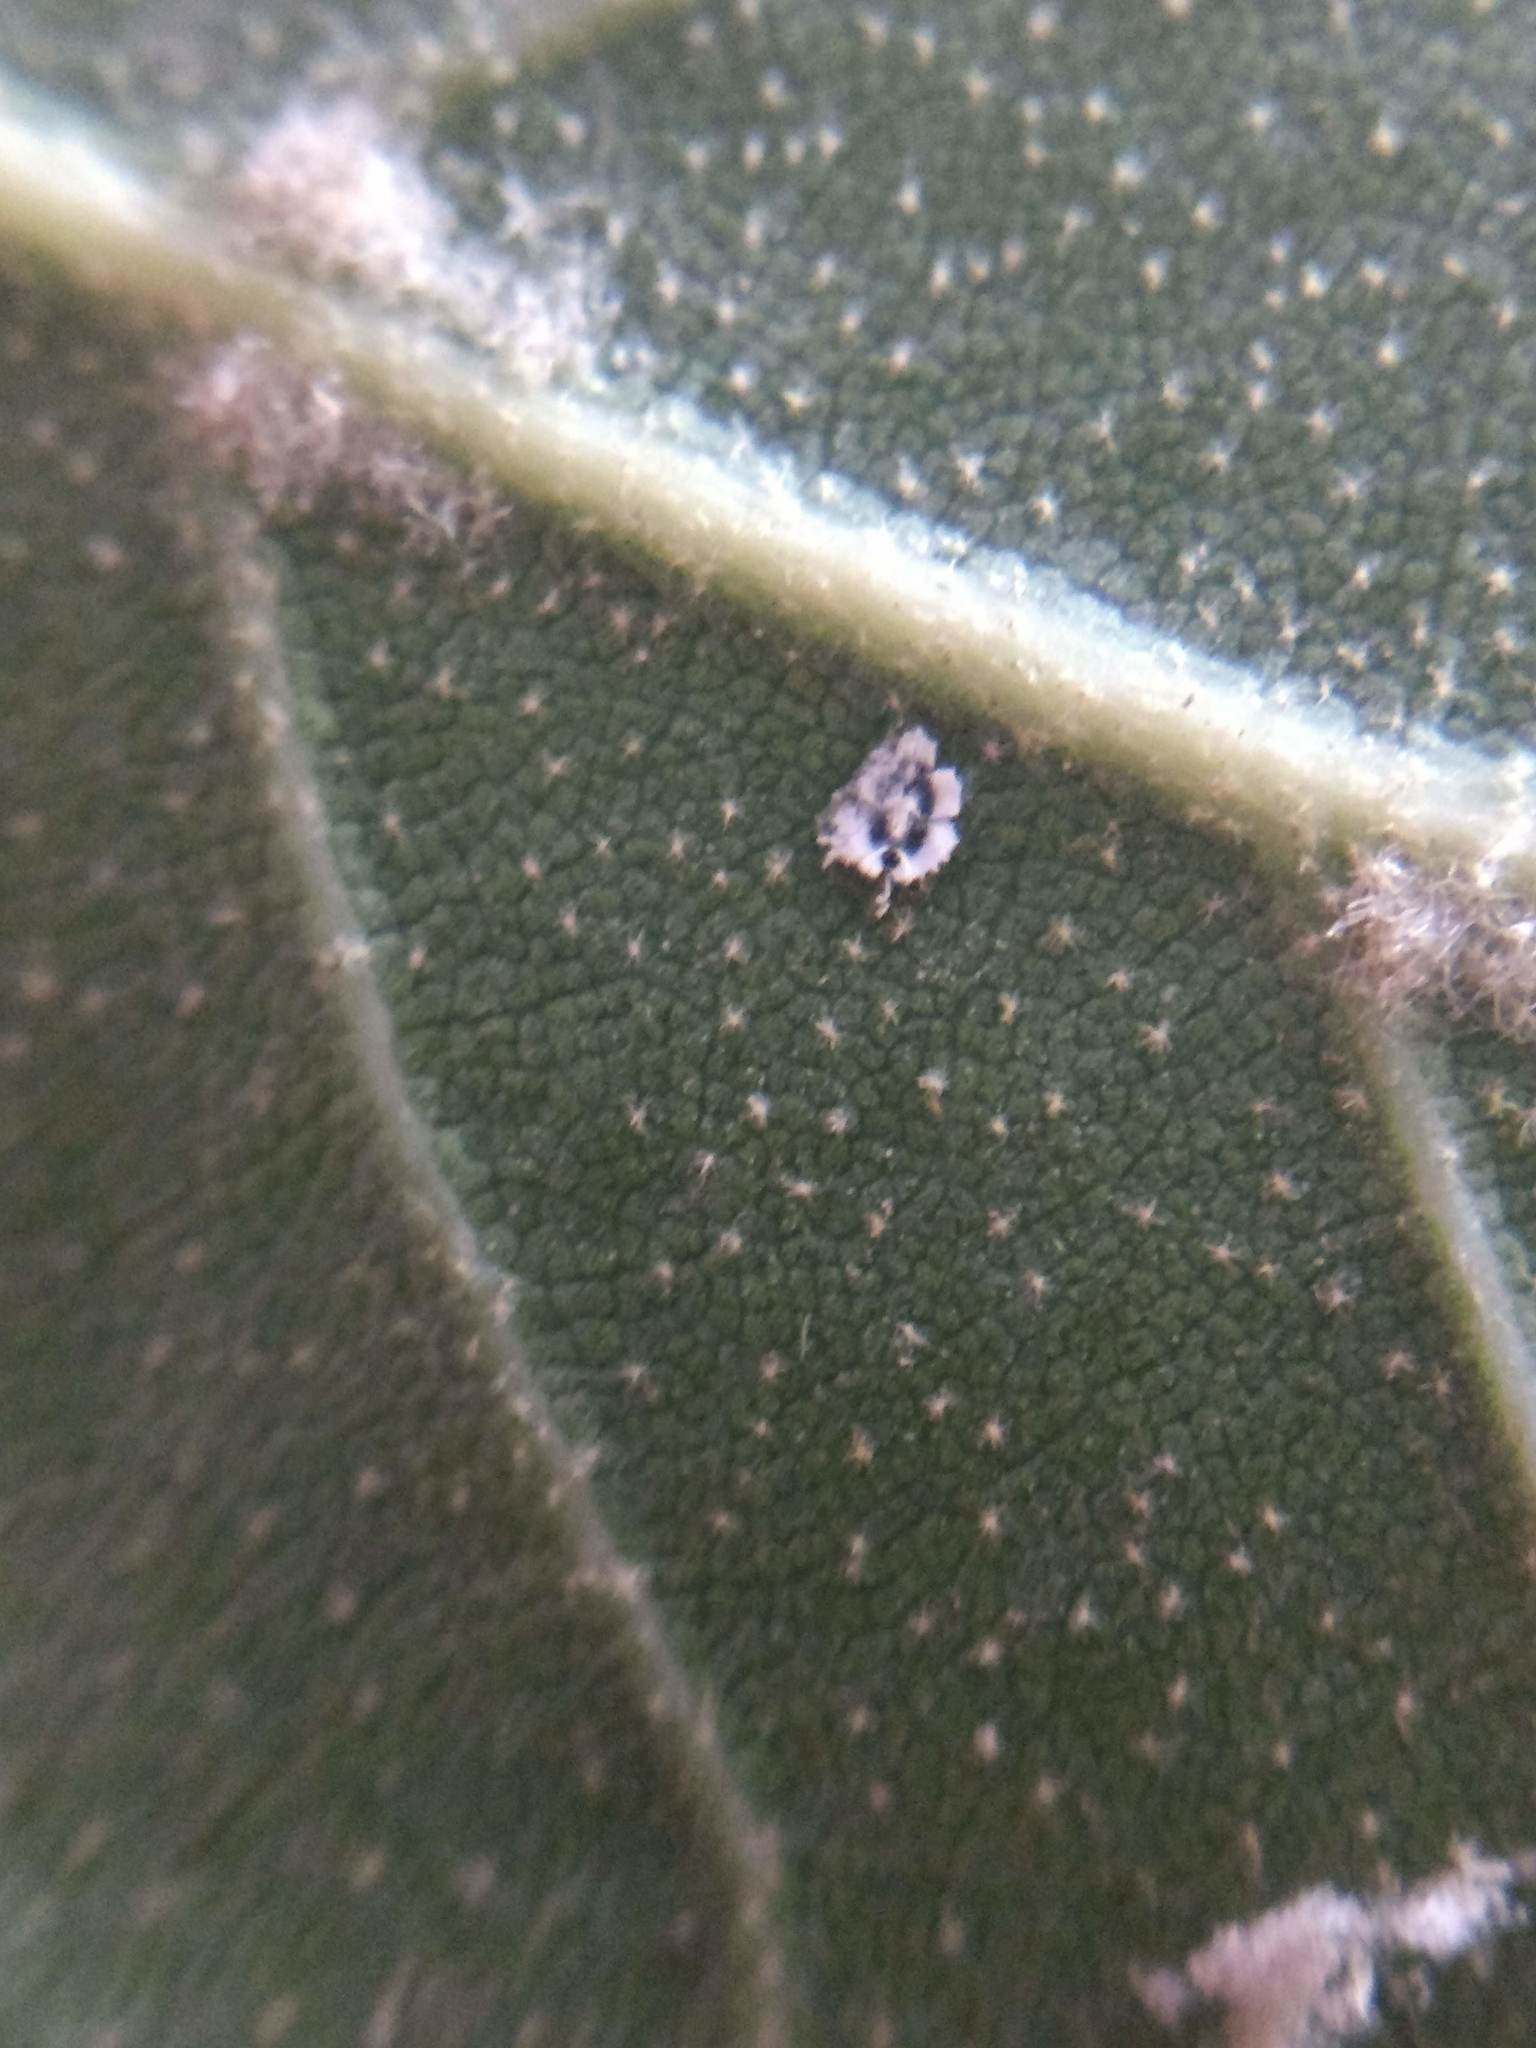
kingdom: Animalia
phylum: Arthropoda
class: Insecta
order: Hemiptera
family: Aleyrodidae
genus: Aleuroplatus
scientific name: Aleuroplatus coronata
